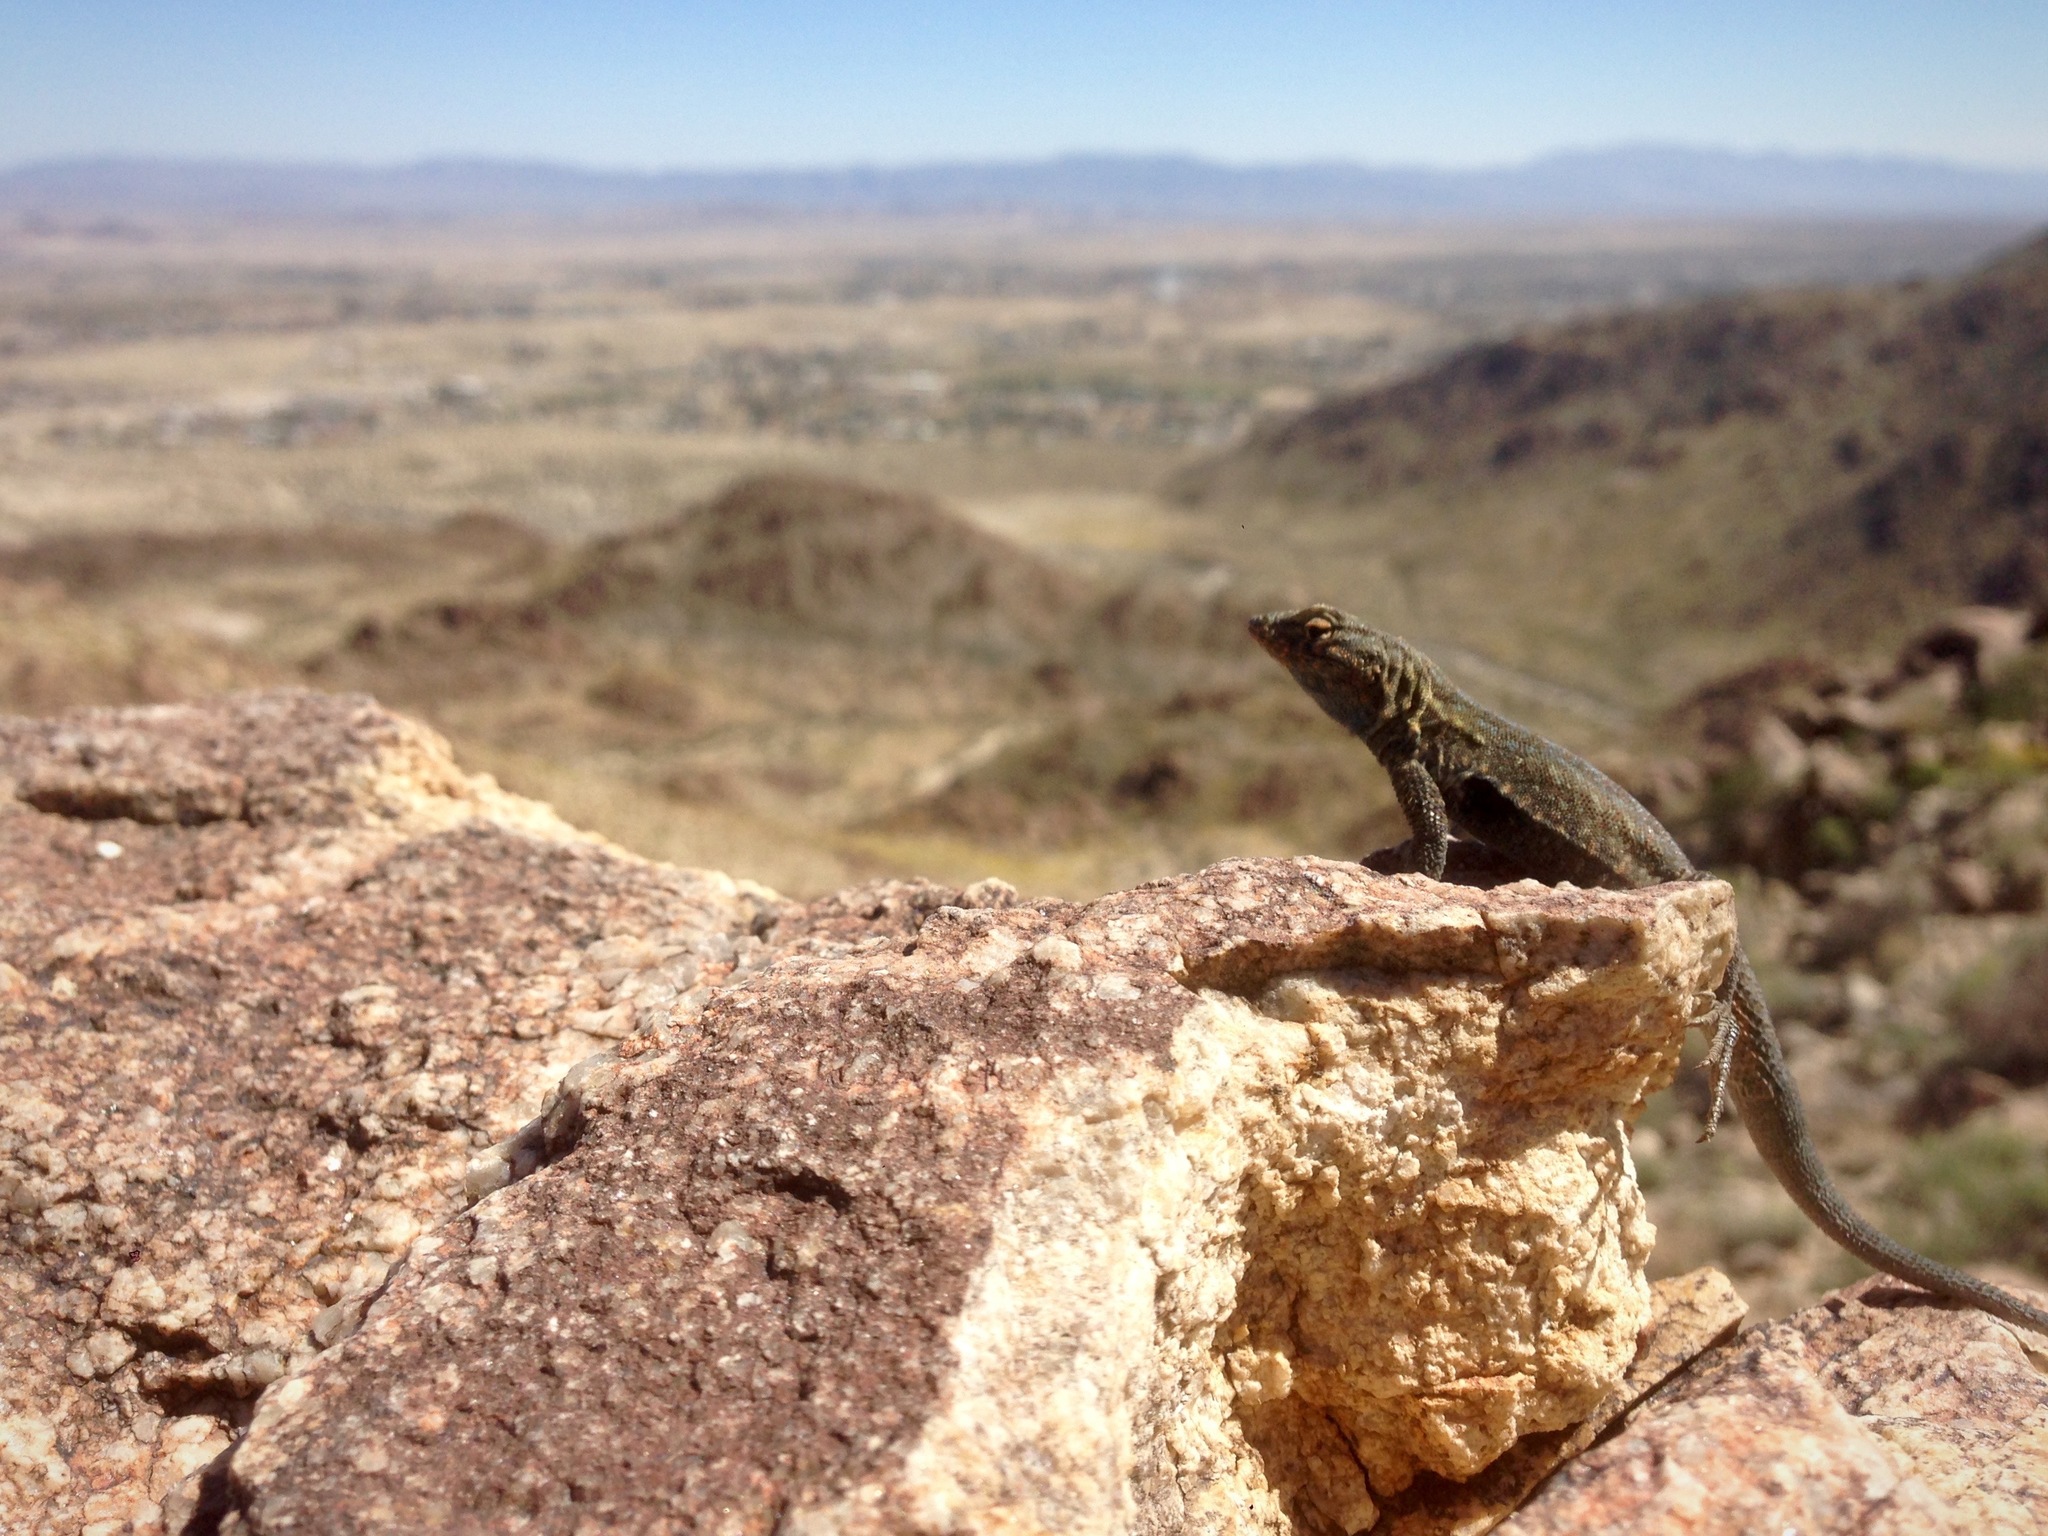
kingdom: Animalia
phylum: Chordata
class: Squamata
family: Phrynosomatidae
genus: Uta
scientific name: Uta stansburiana
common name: Side-blotched lizard
